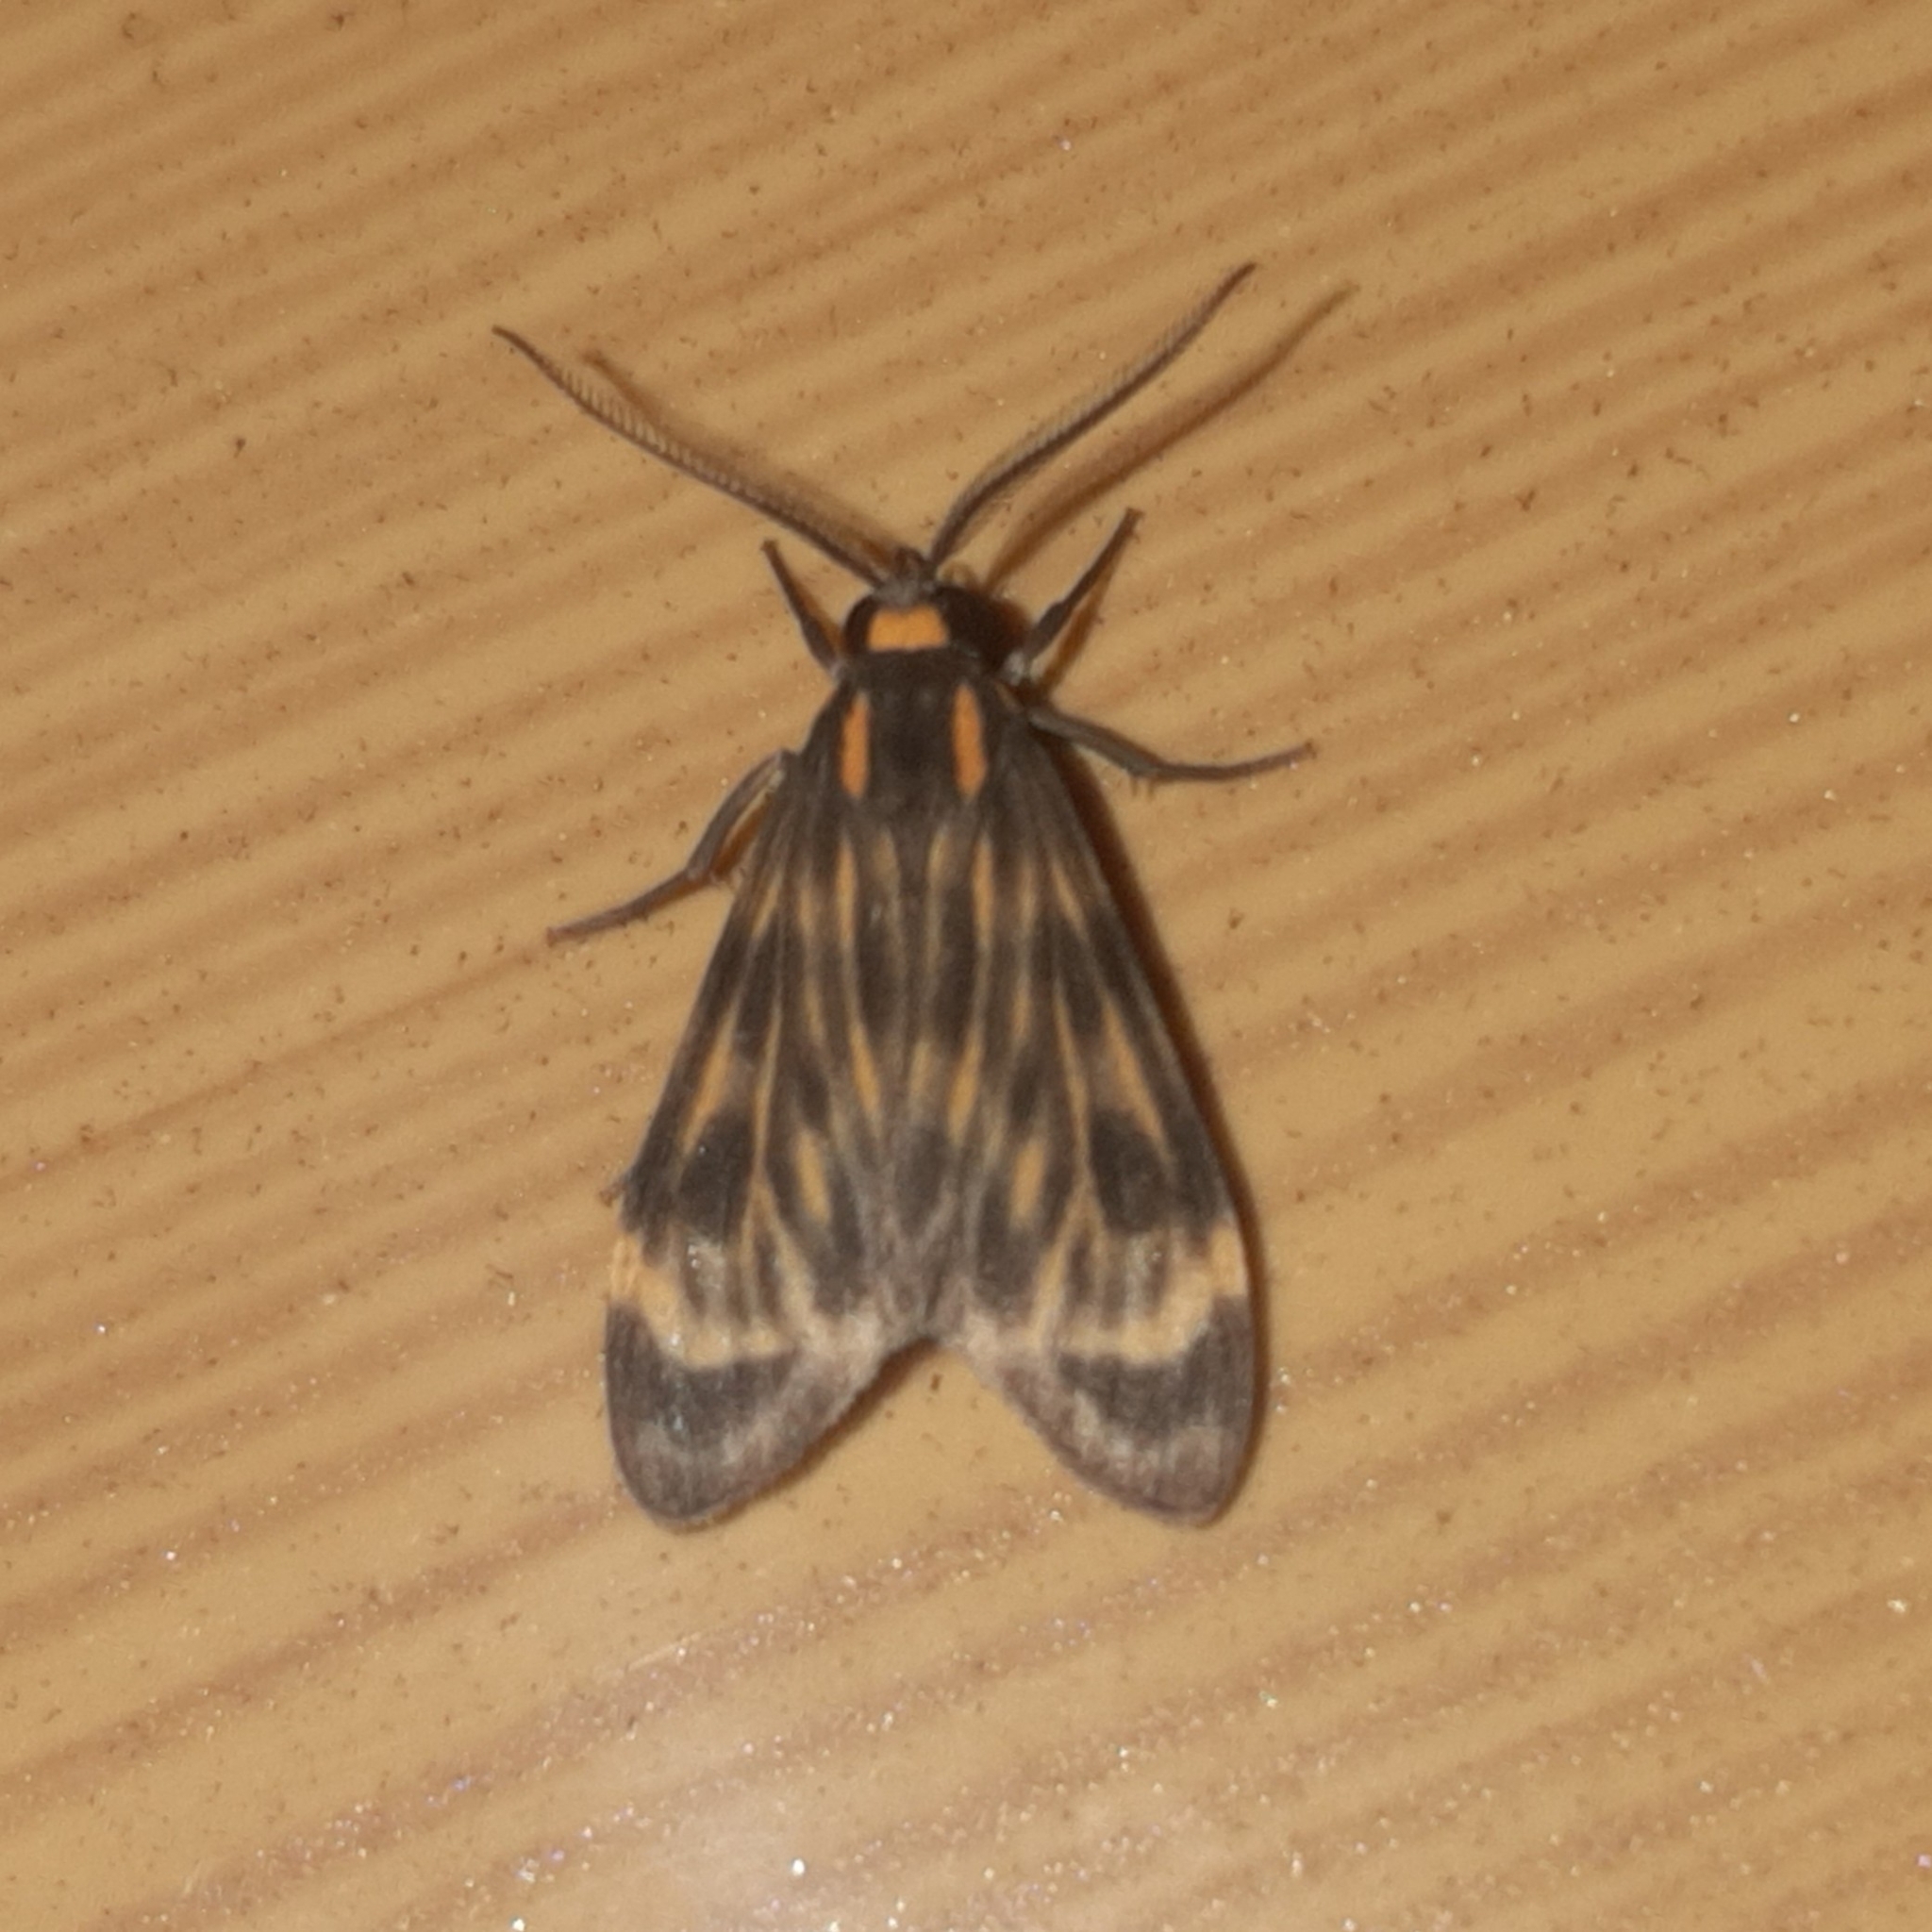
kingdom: Animalia
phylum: Arthropoda
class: Insecta
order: Lepidoptera
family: Erebidae
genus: Eucereon
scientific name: Eucereon costulatum
